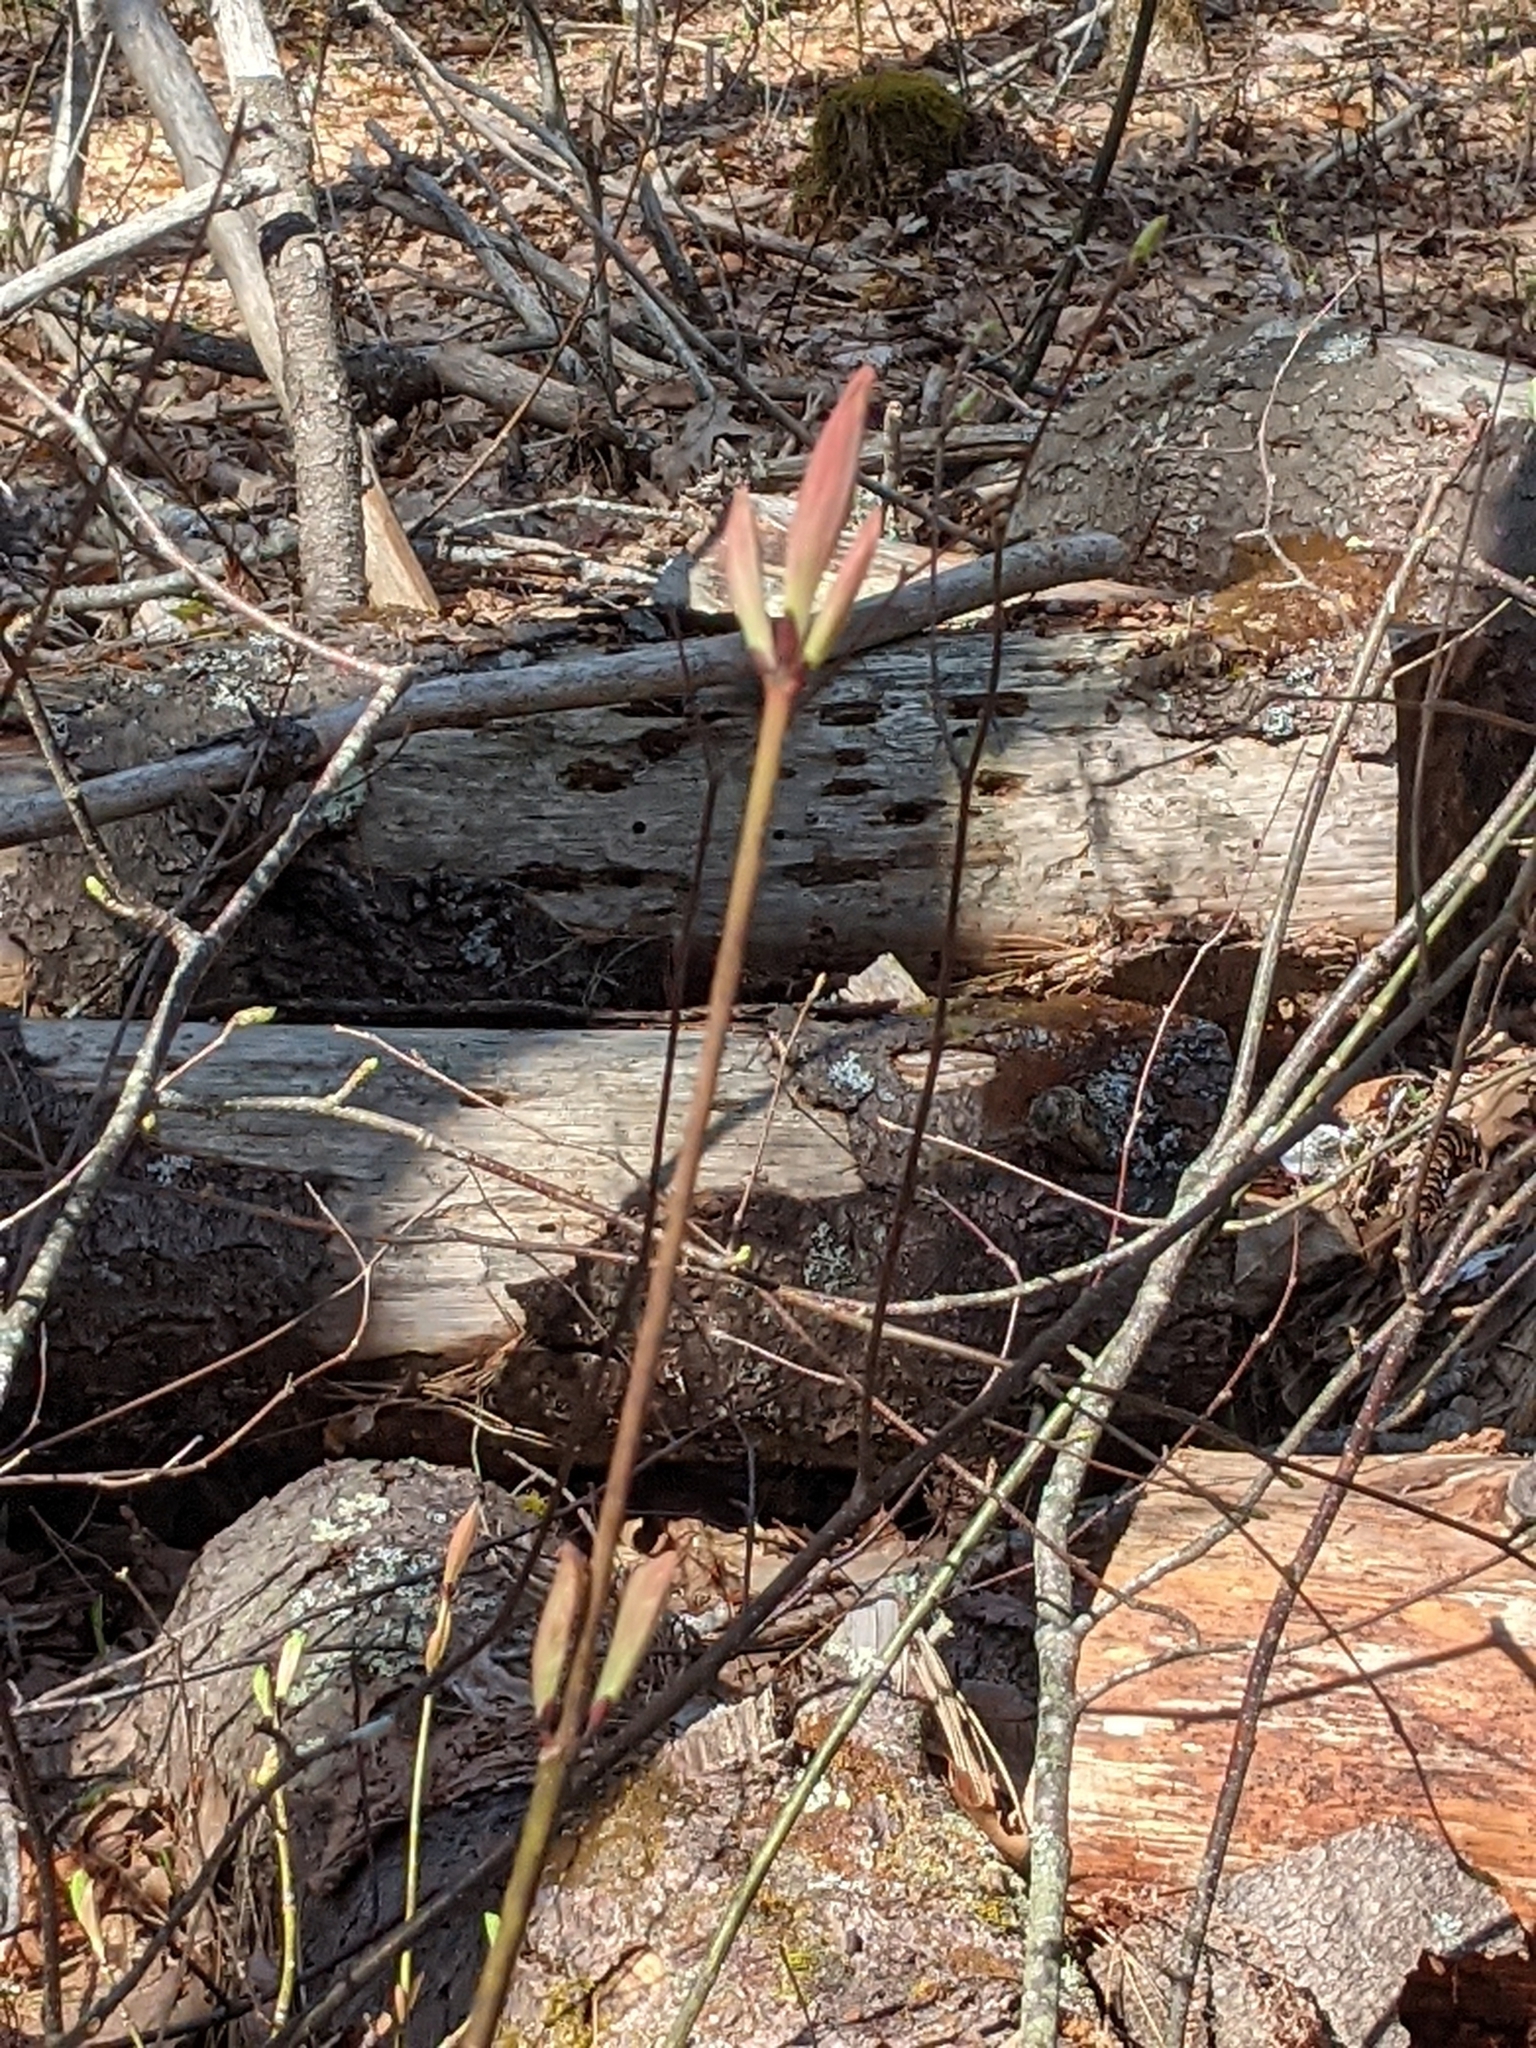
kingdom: Plantae
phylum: Tracheophyta
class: Magnoliopsida
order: Sapindales
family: Sapindaceae
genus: Acer
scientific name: Acer pensylvanicum
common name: Moosewood
